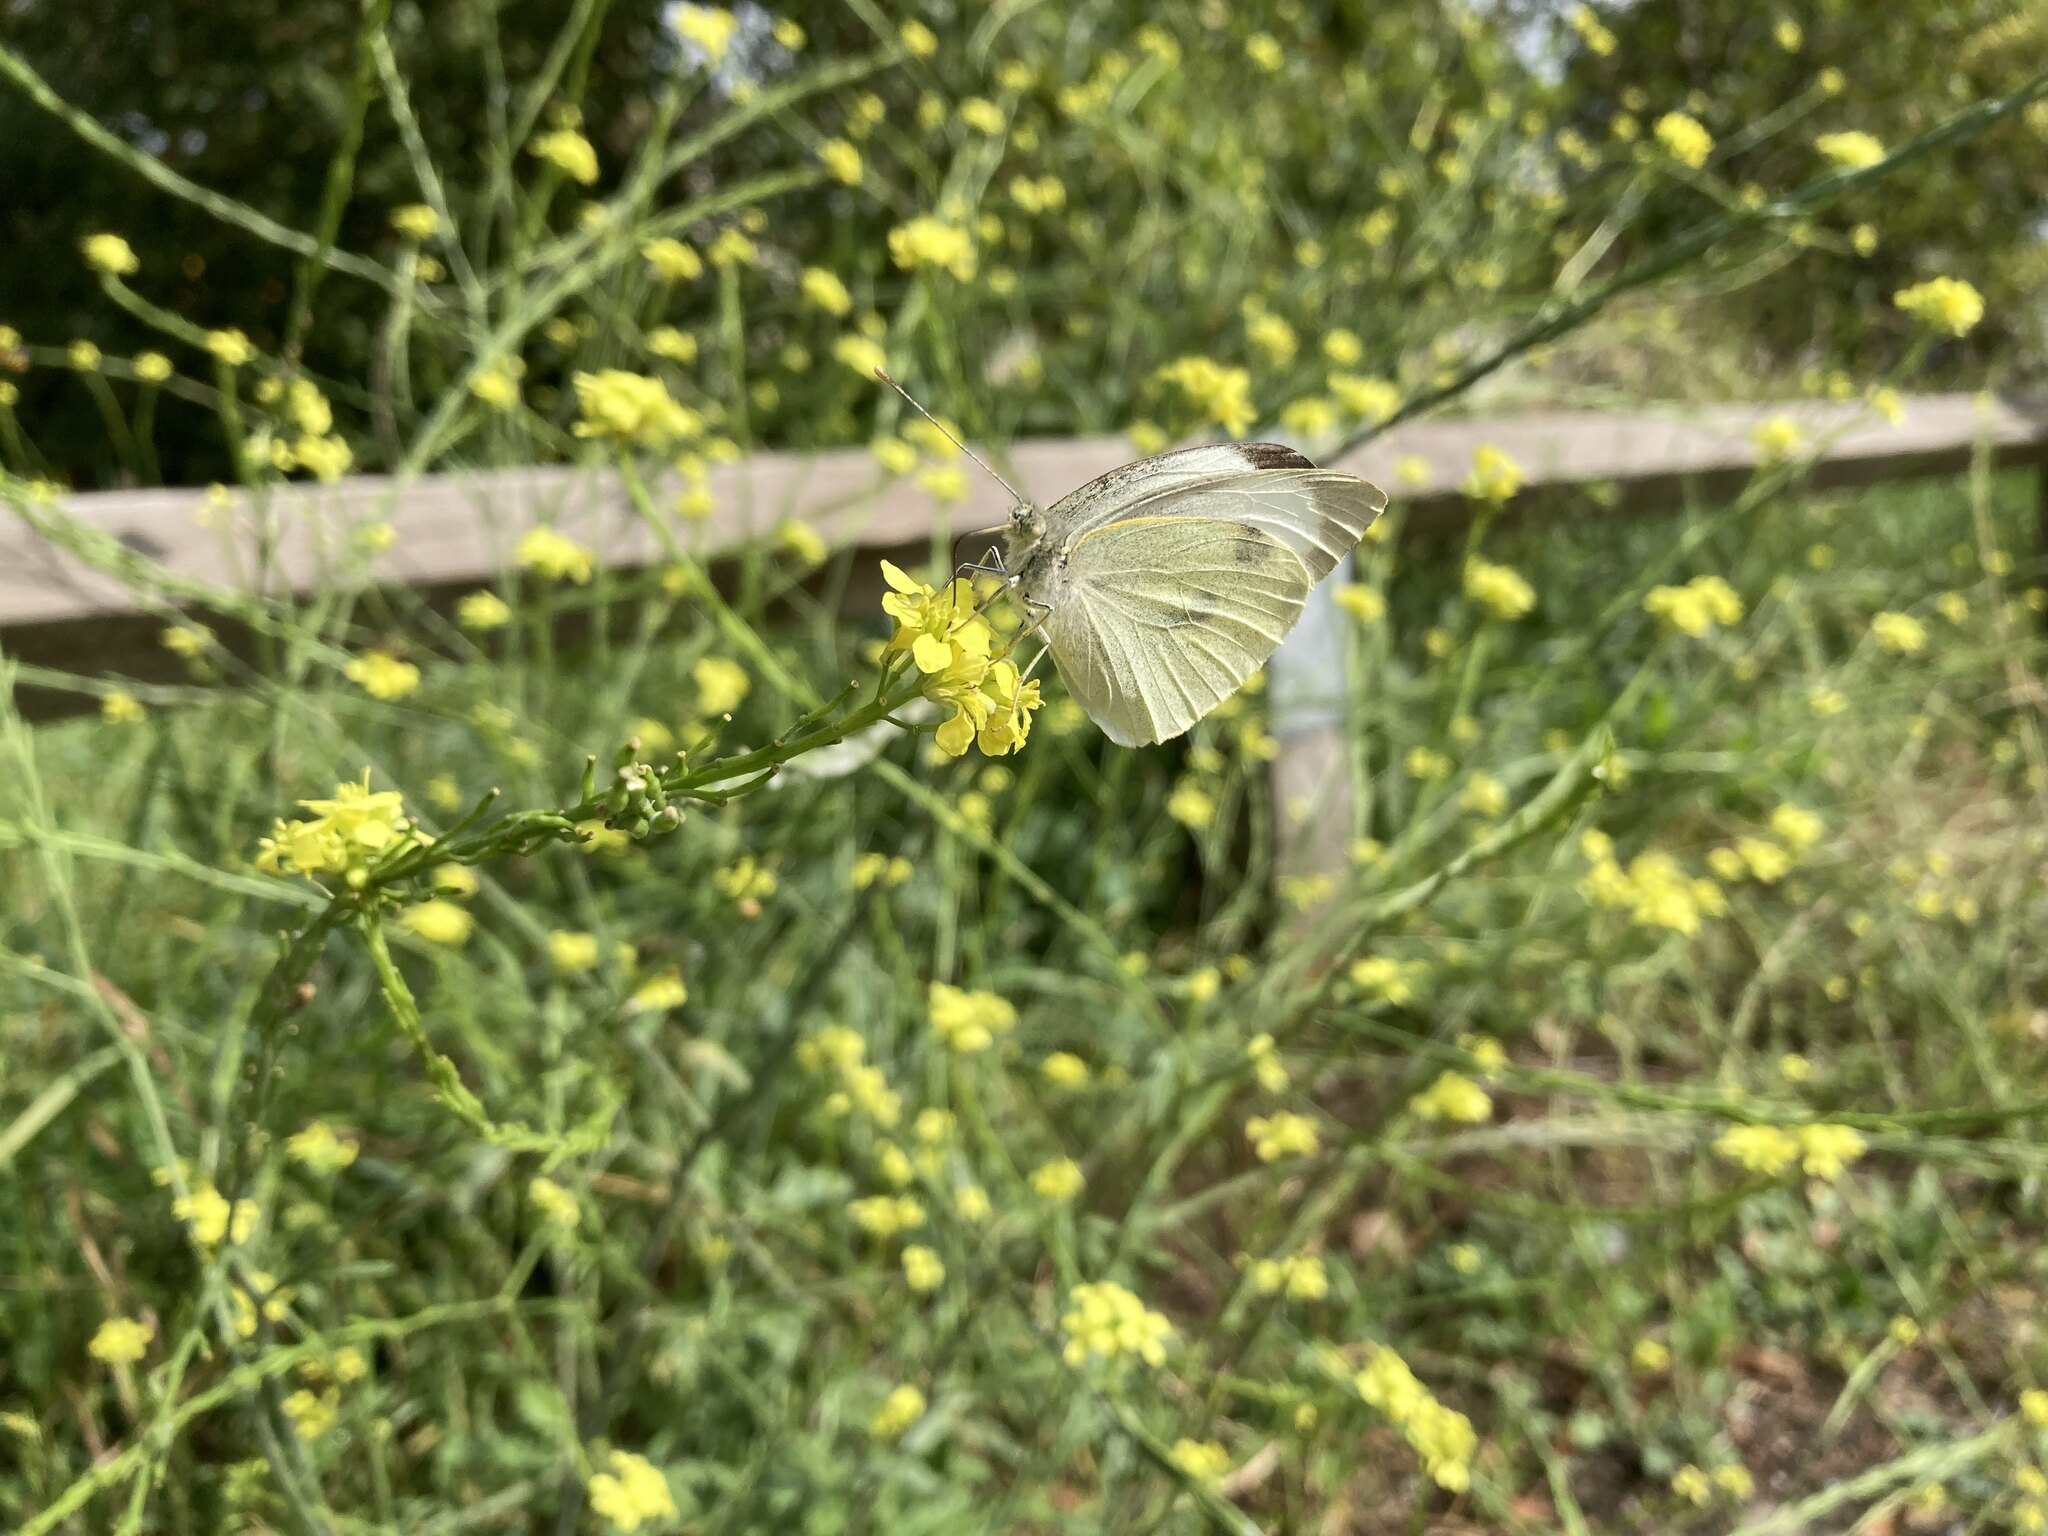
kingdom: Animalia
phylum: Arthropoda
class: Insecta
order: Lepidoptera
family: Pieridae
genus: Pieris
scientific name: Pieris brassicae
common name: Large white
